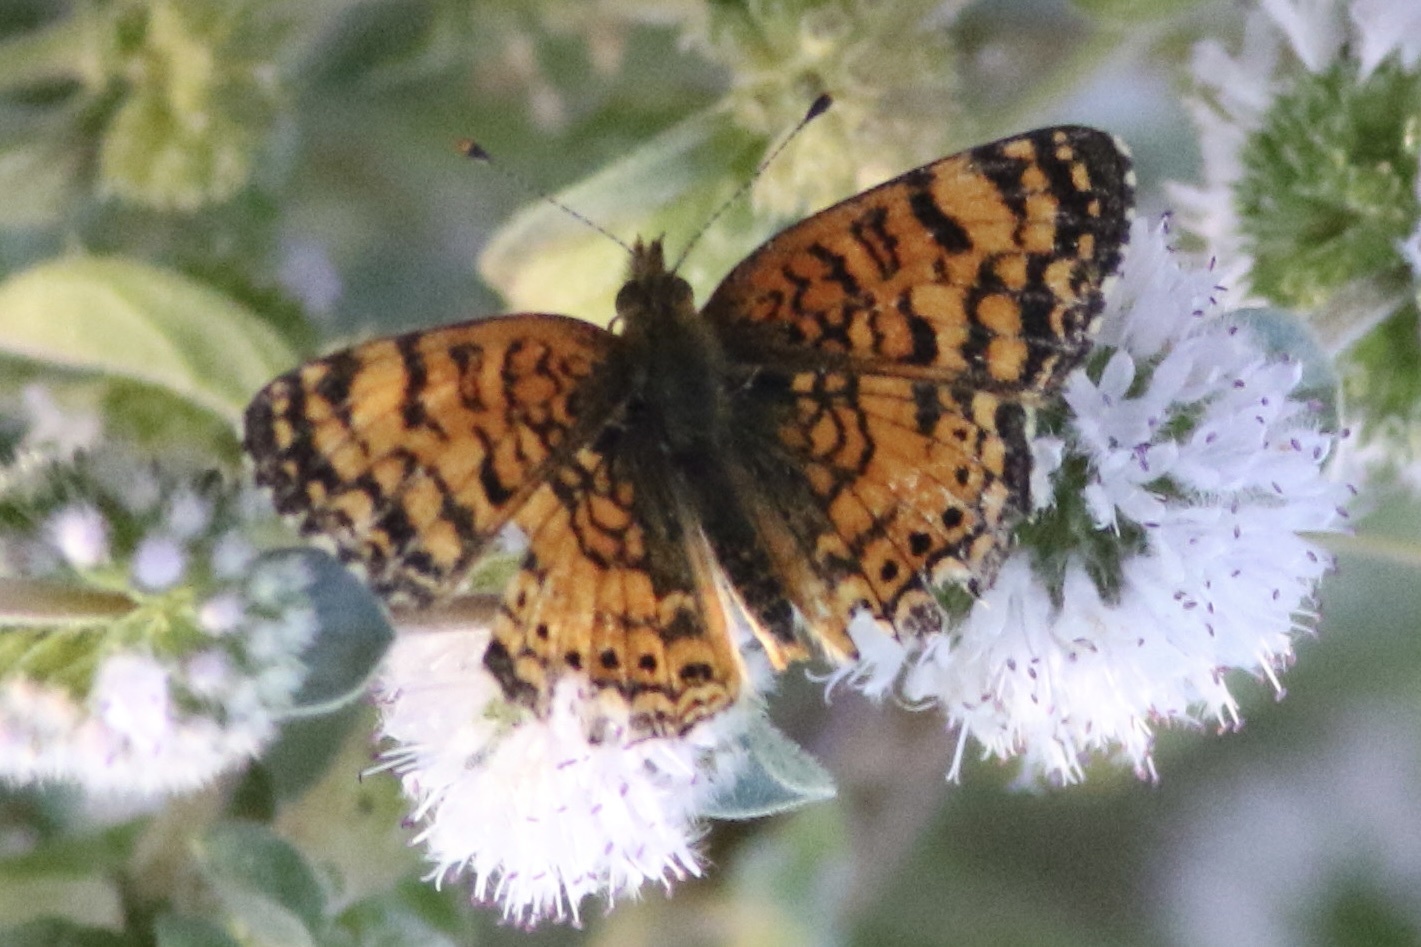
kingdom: Animalia
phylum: Arthropoda
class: Insecta
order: Lepidoptera
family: Nymphalidae
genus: Eresia
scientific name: Eresia aveyrona
